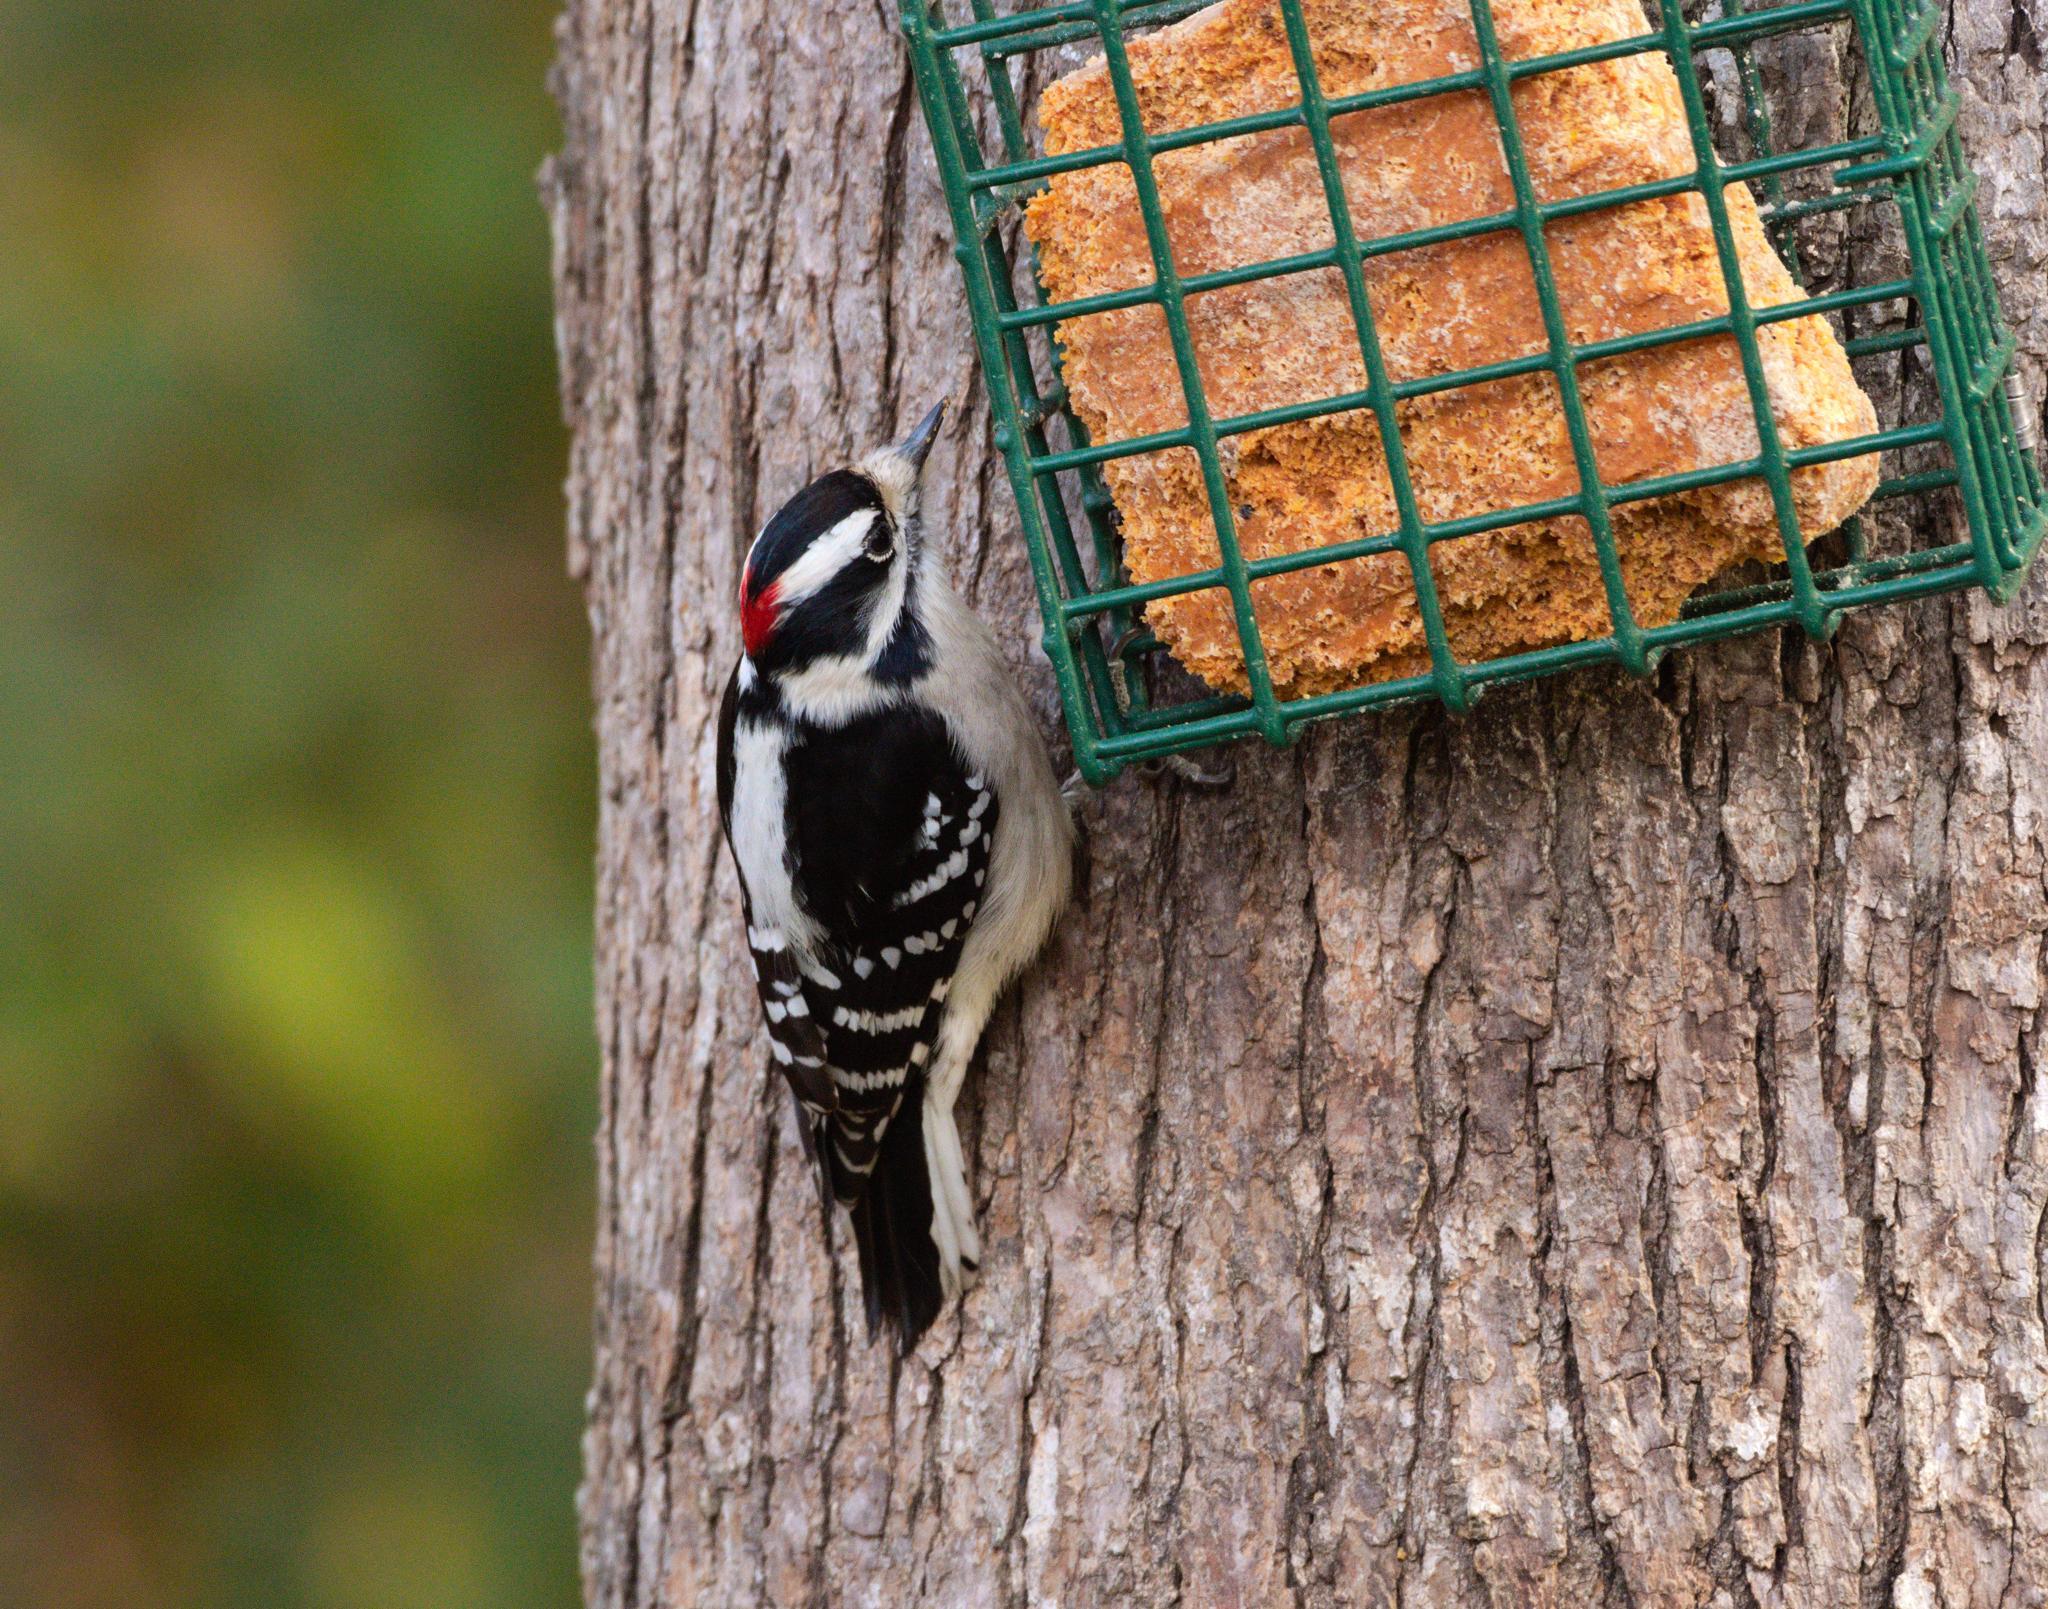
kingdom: Animalia
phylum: Chordata
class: Aves
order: Piciformes
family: Picidae
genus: Dryobates
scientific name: Dryobates pubescens
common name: Downy woodpecker
